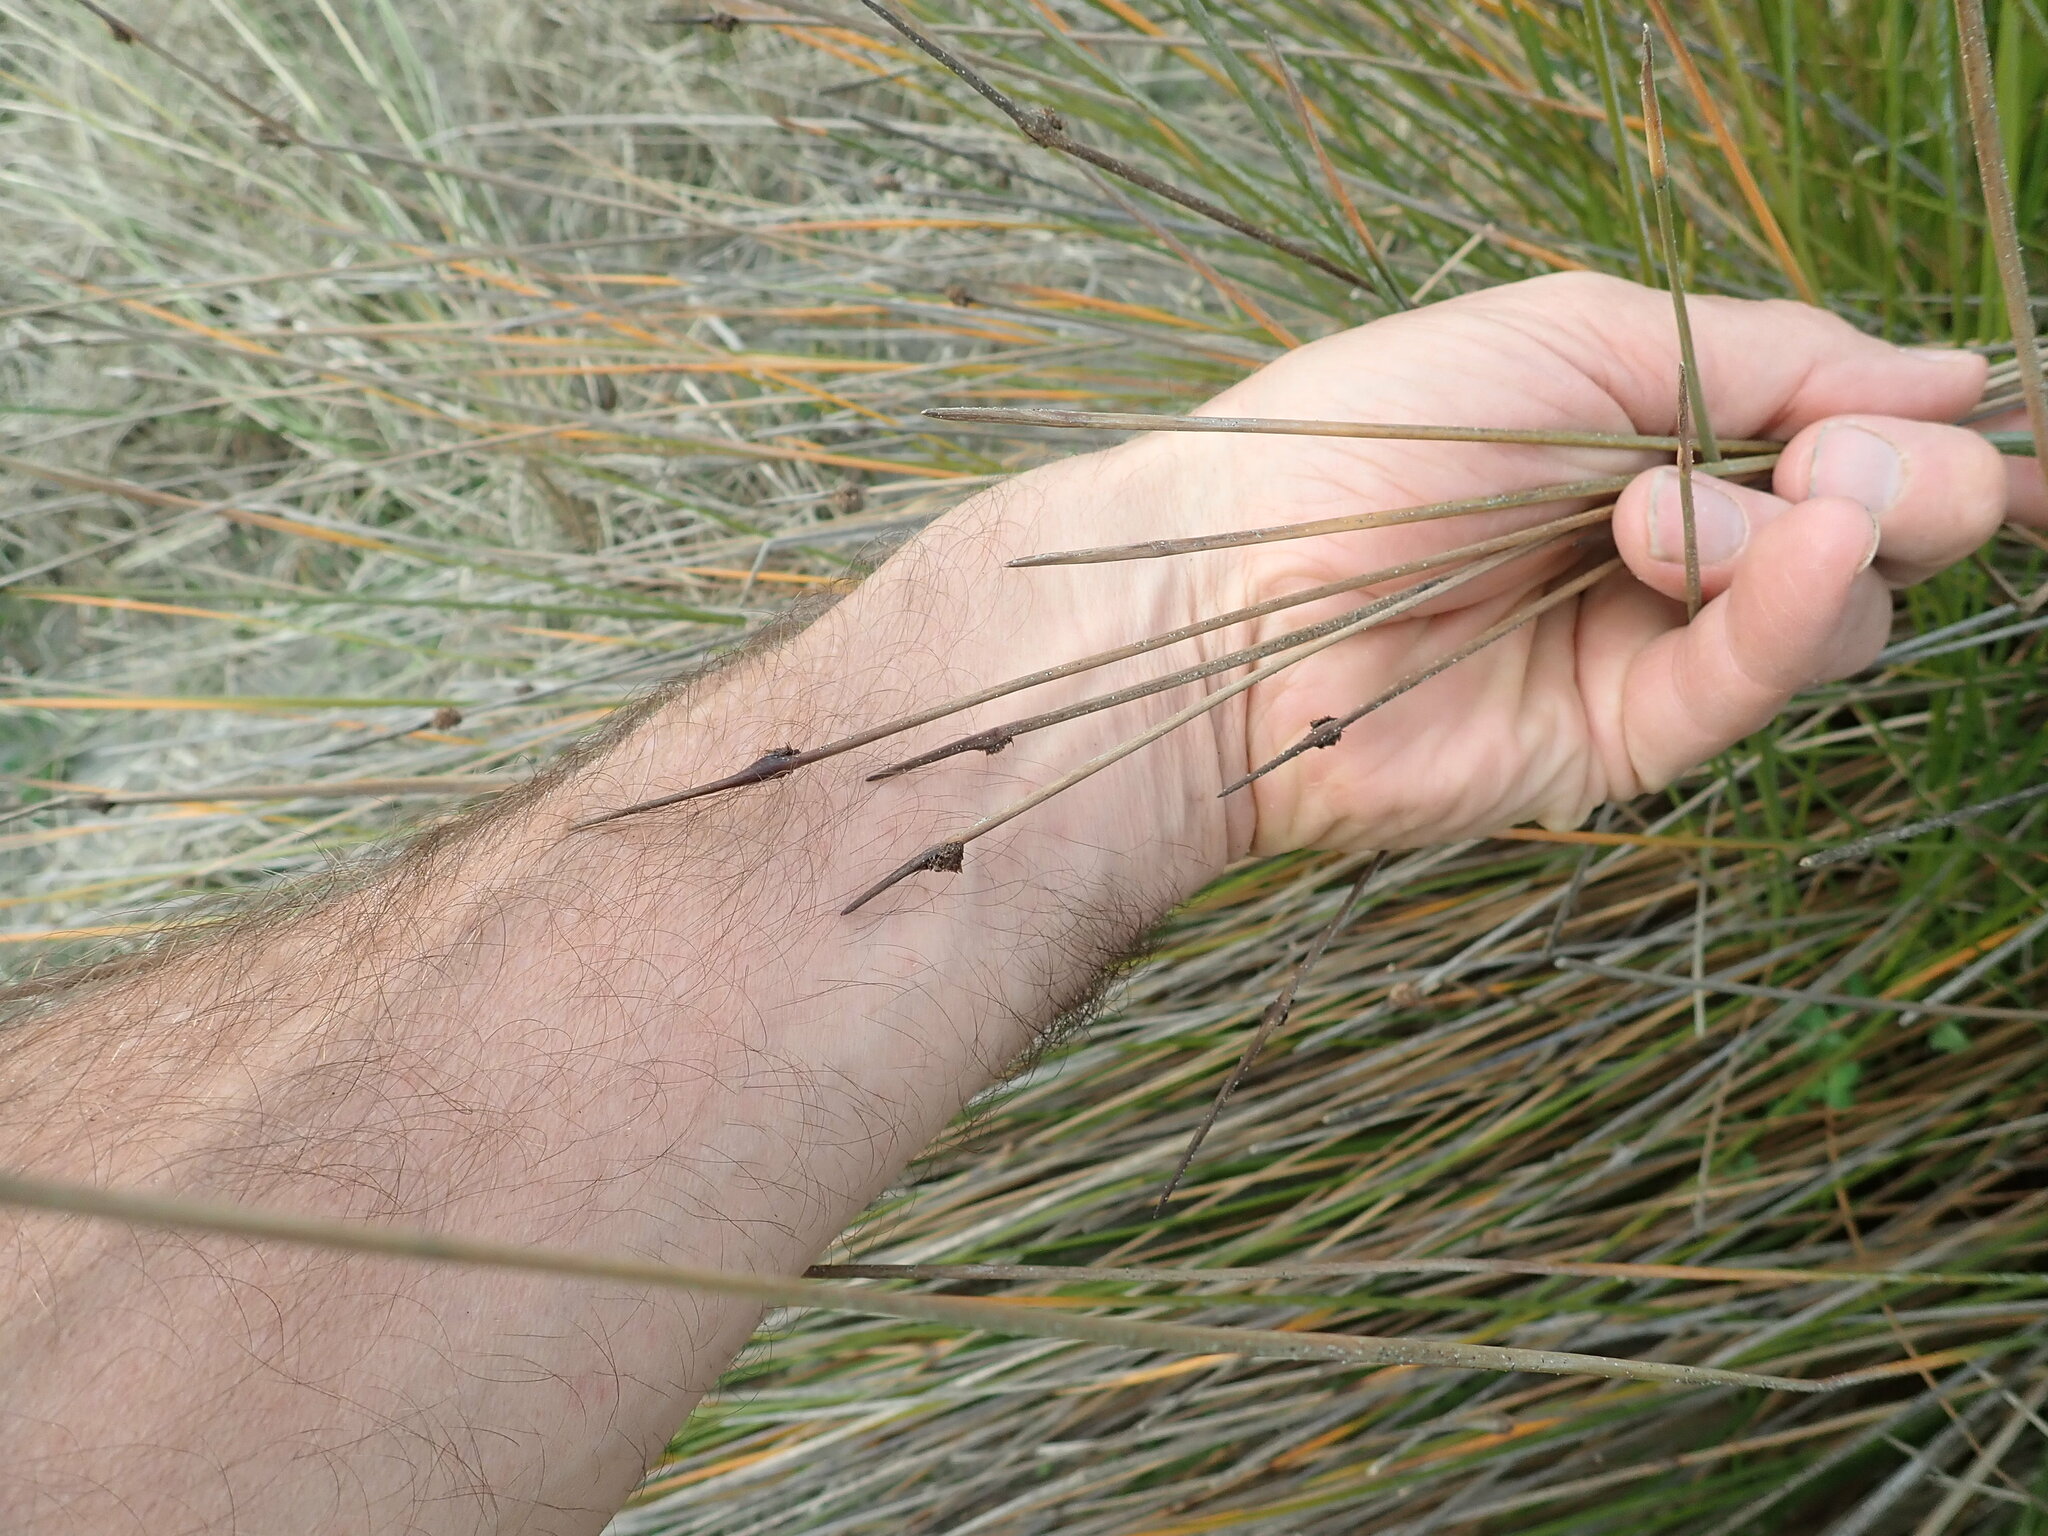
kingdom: Plantae
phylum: Tracheophyta
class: Liliopsida
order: Poales
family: Cyperaceae
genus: Ficinia
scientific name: Ficinia nodosa
